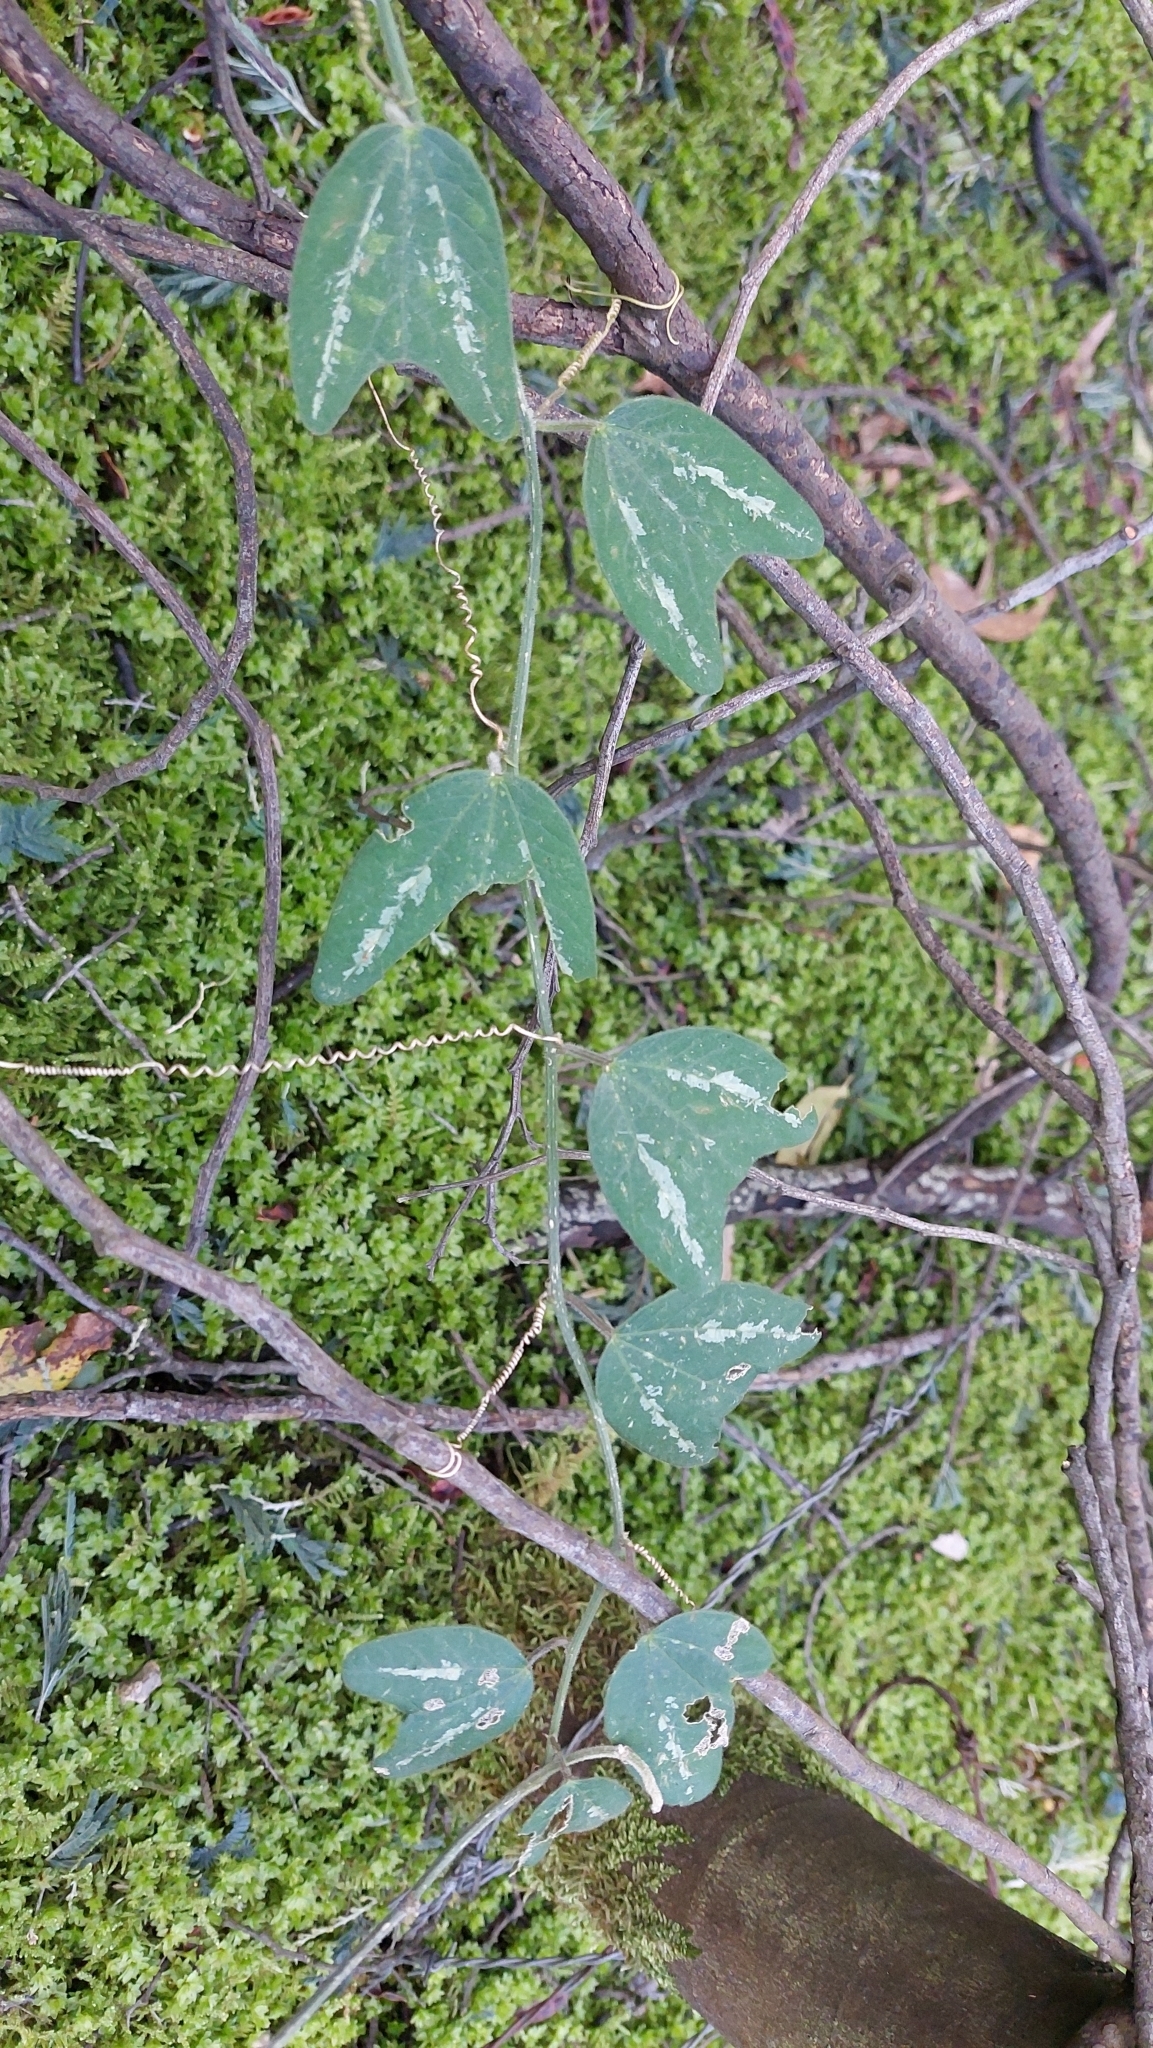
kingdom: Plantae
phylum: Tracheophyta
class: Magnoliopsida
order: Malpighiales
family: Passifloraceae
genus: Passiflora
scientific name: Passiflora bogotensis
